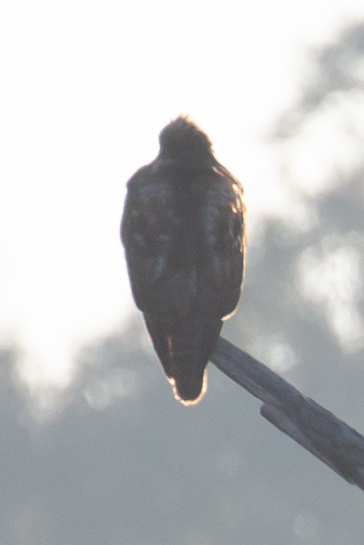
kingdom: Animalia
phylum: Chordata
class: Aves
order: Accipitriformes
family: Accipitridae
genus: Buteo
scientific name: Buteo jamaicensis
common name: Red-tailed hawk
